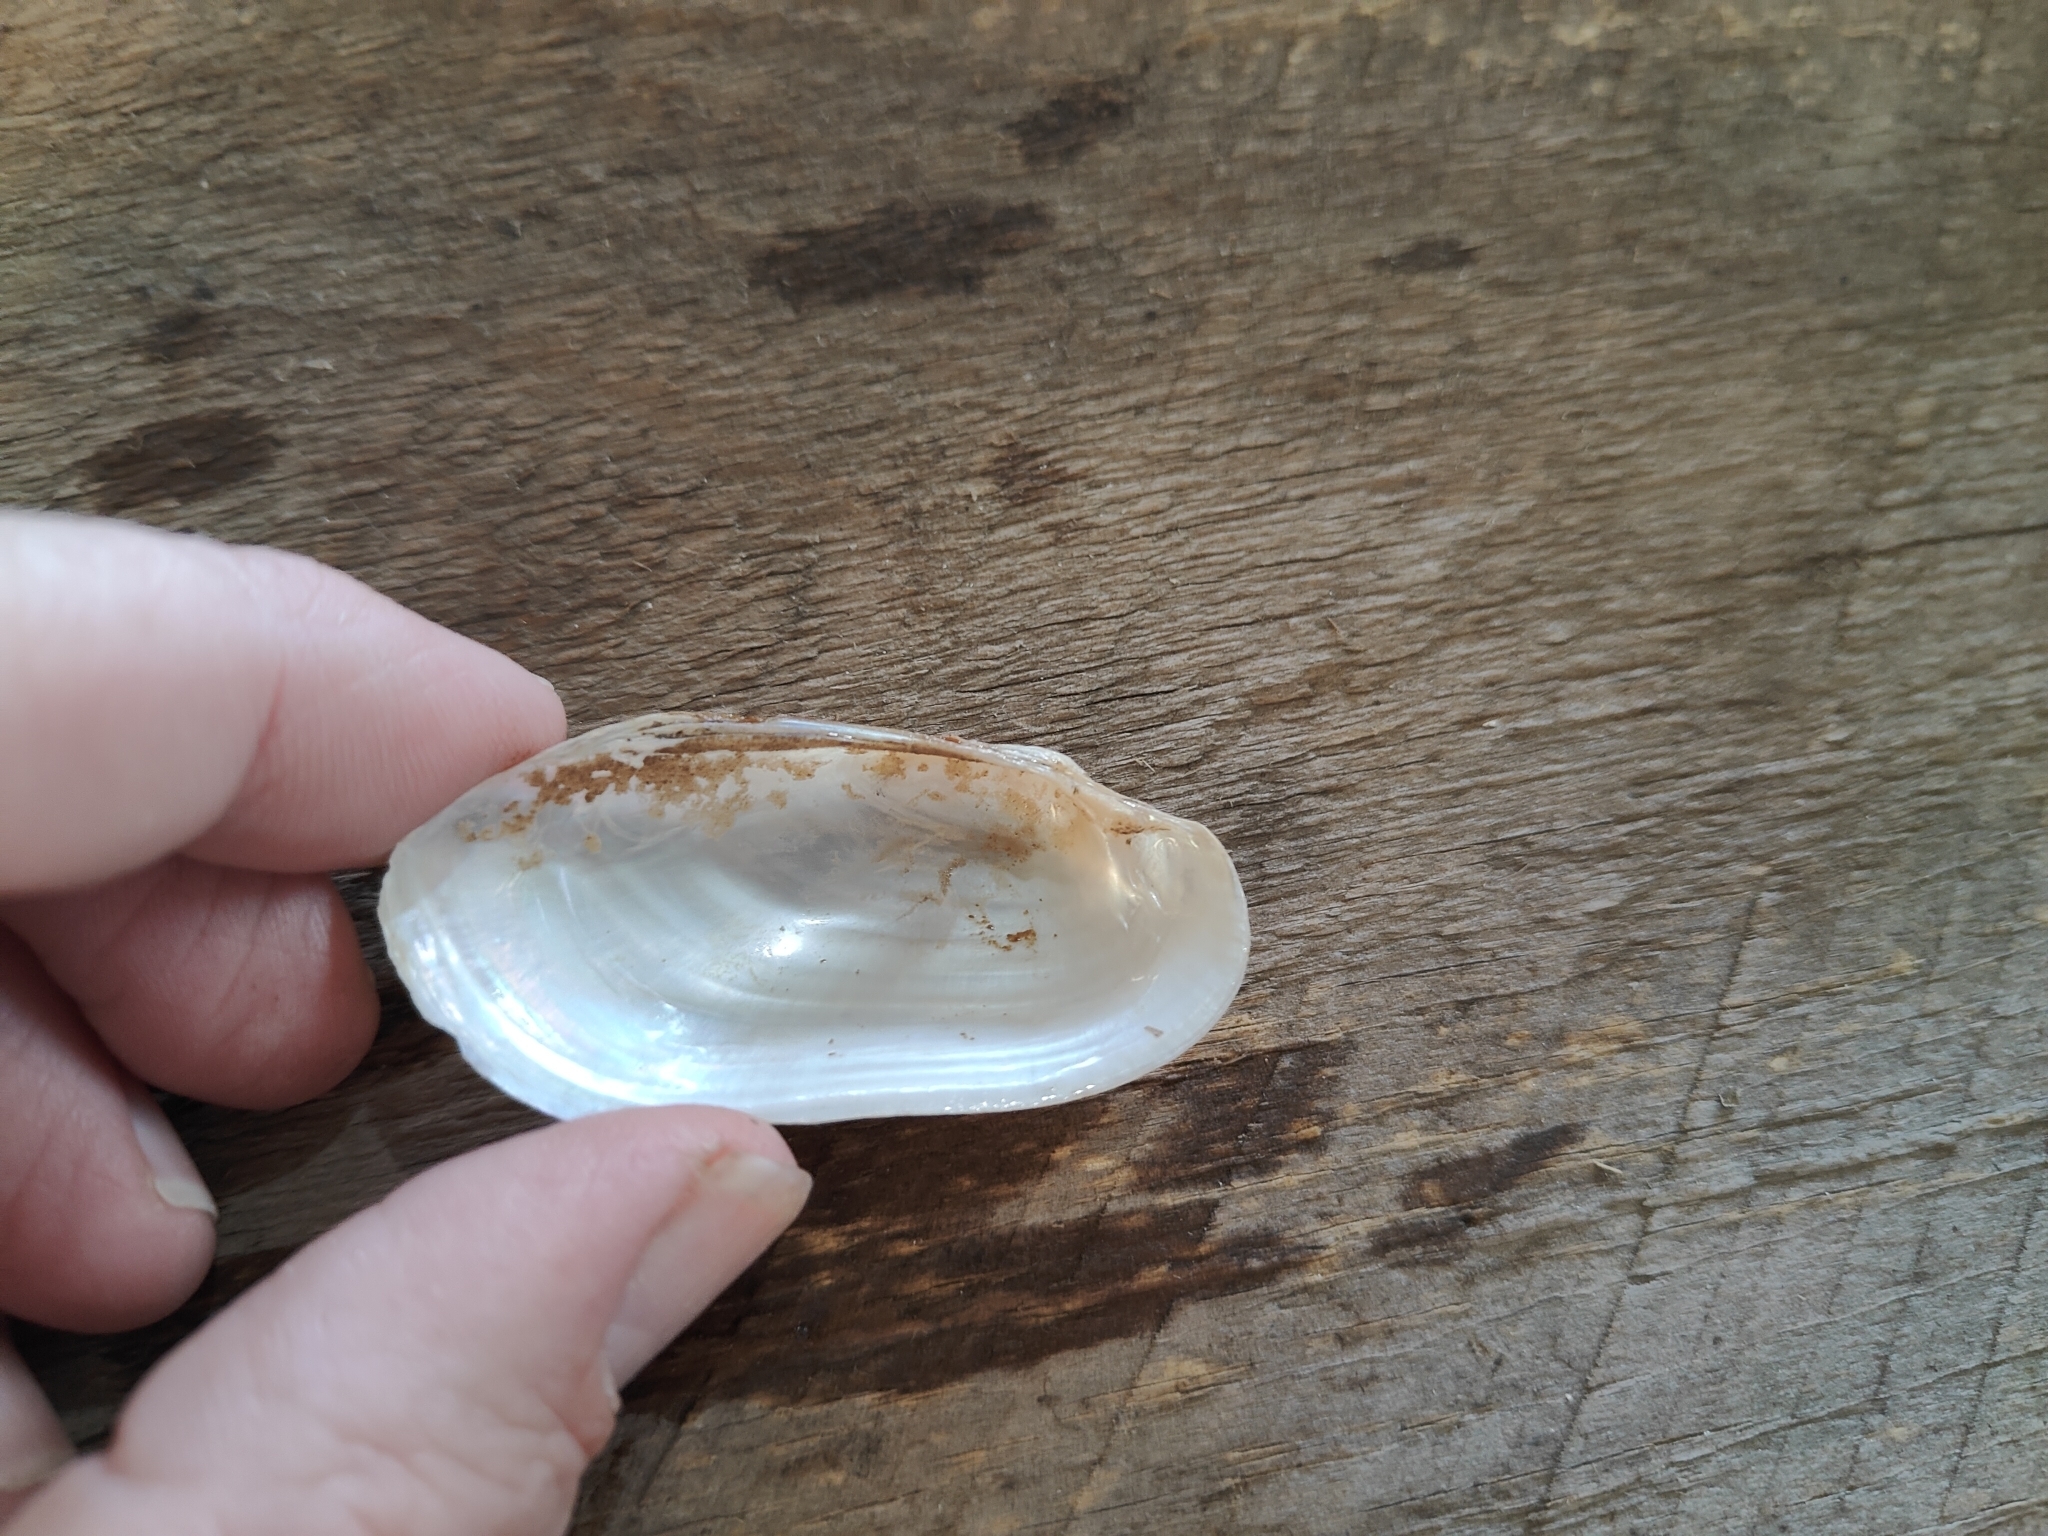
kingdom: Animalia
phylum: Mollusca
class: Bivalvia
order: Unionida
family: Unionidae
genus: Lampsilis
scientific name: Lampsilis teres
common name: Yellow sandshell
